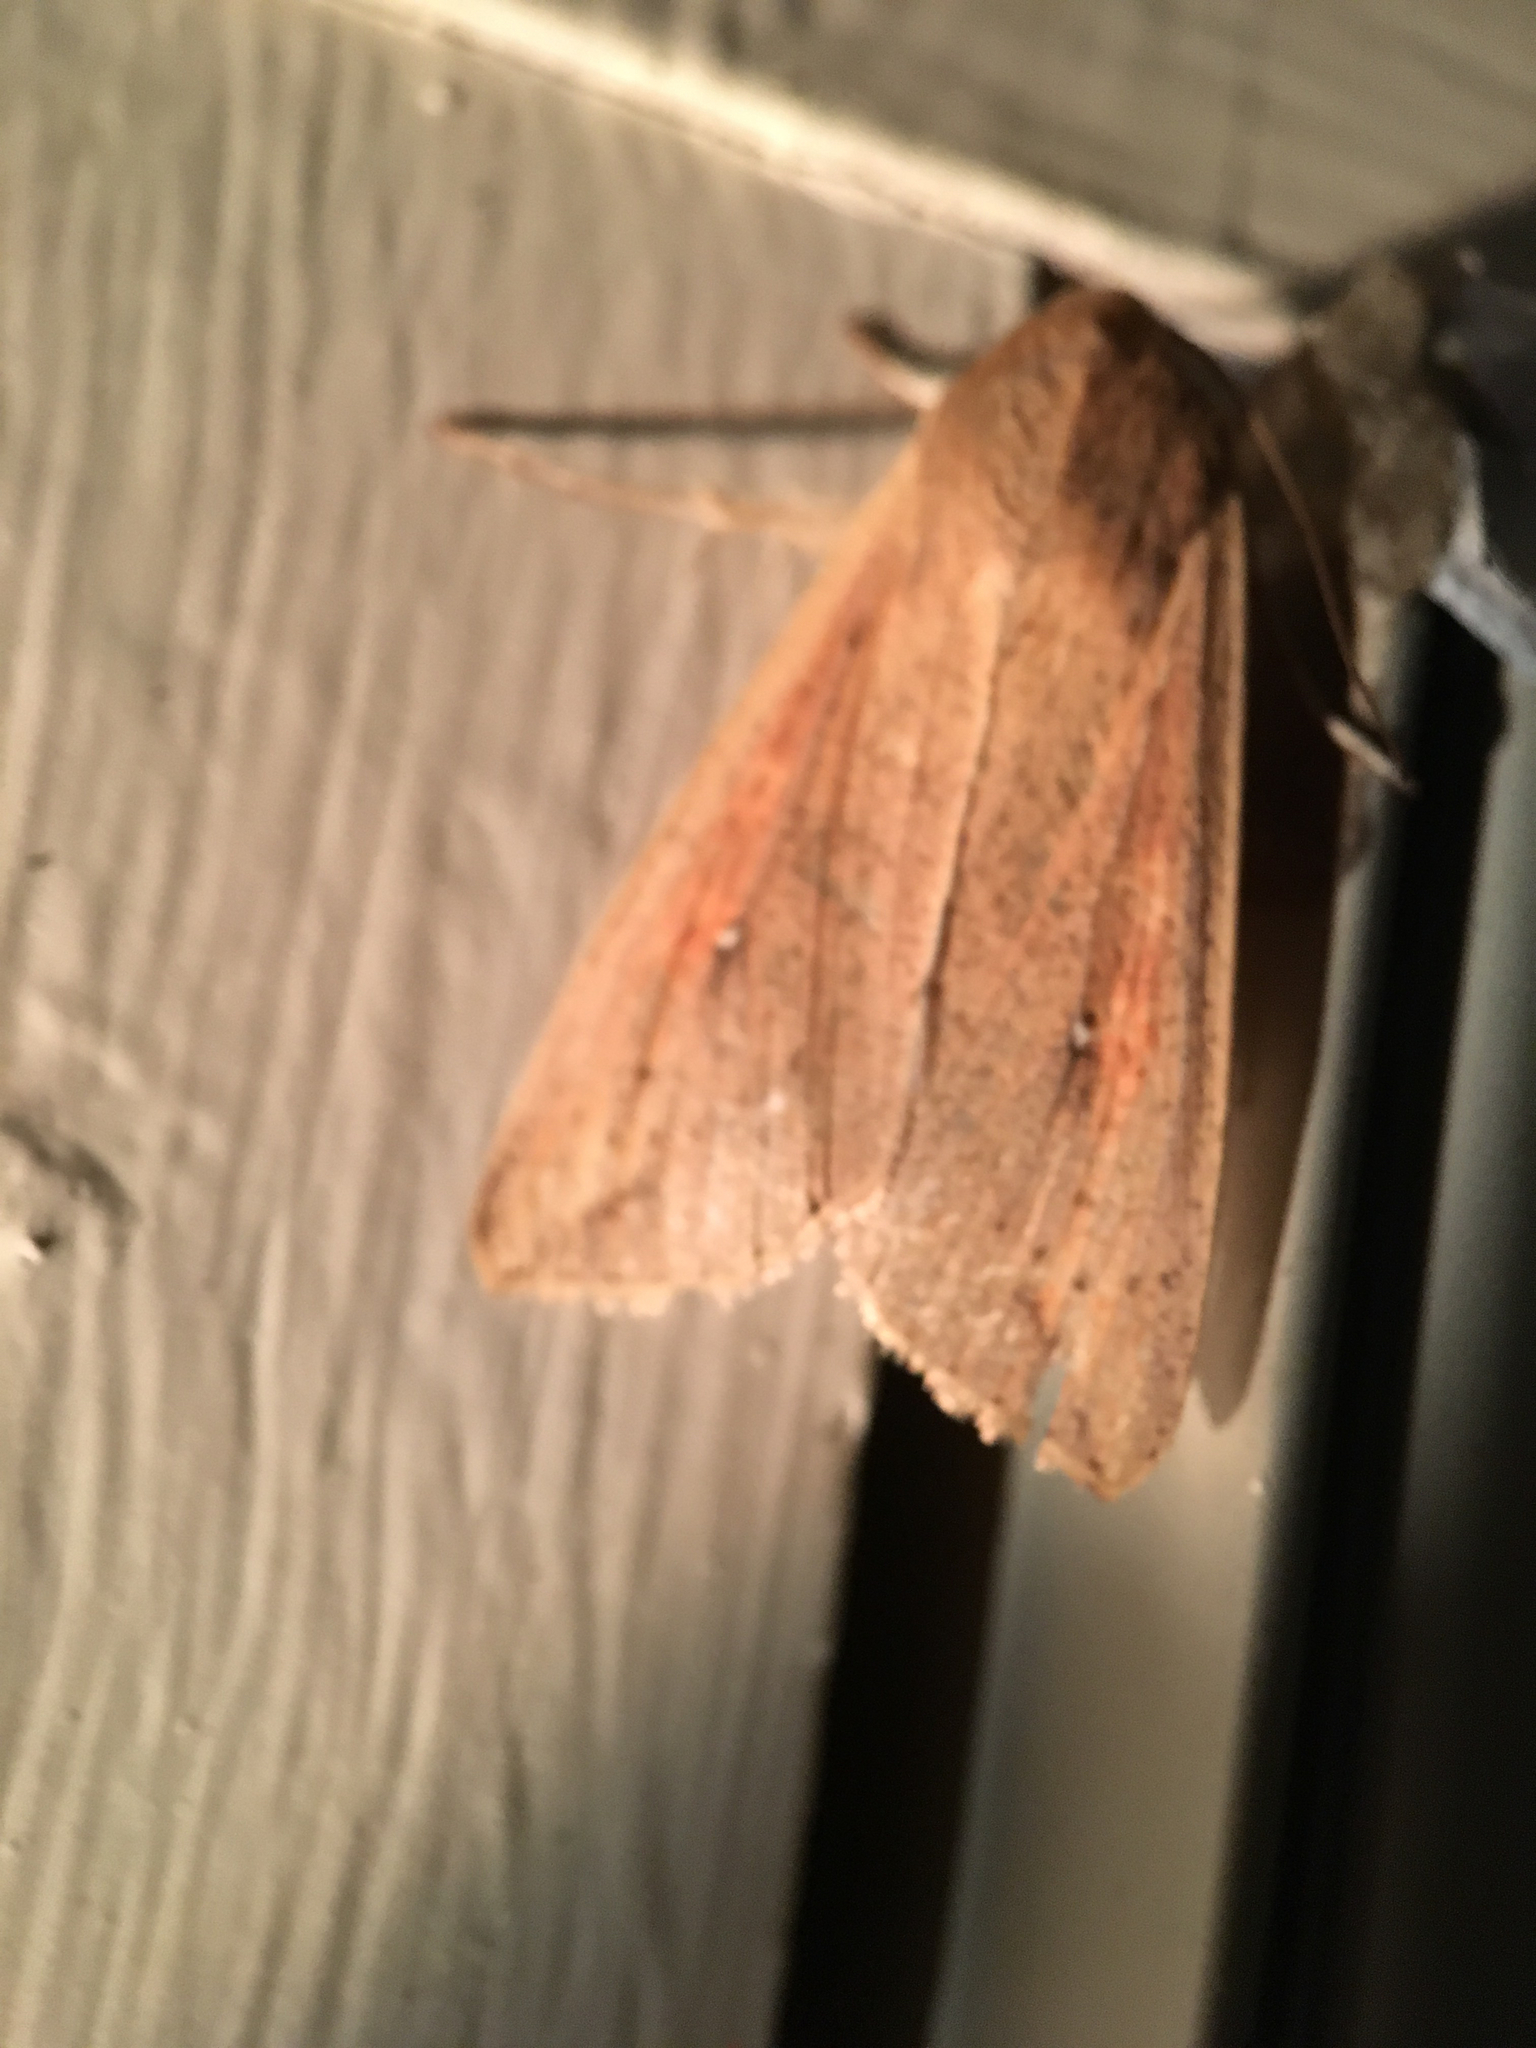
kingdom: Animalia
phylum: Arthropoda
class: Insecta
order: Lepidoptera
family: Noctuidae
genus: Mythimna
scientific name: Mythimna unipuncta
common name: White-speck
